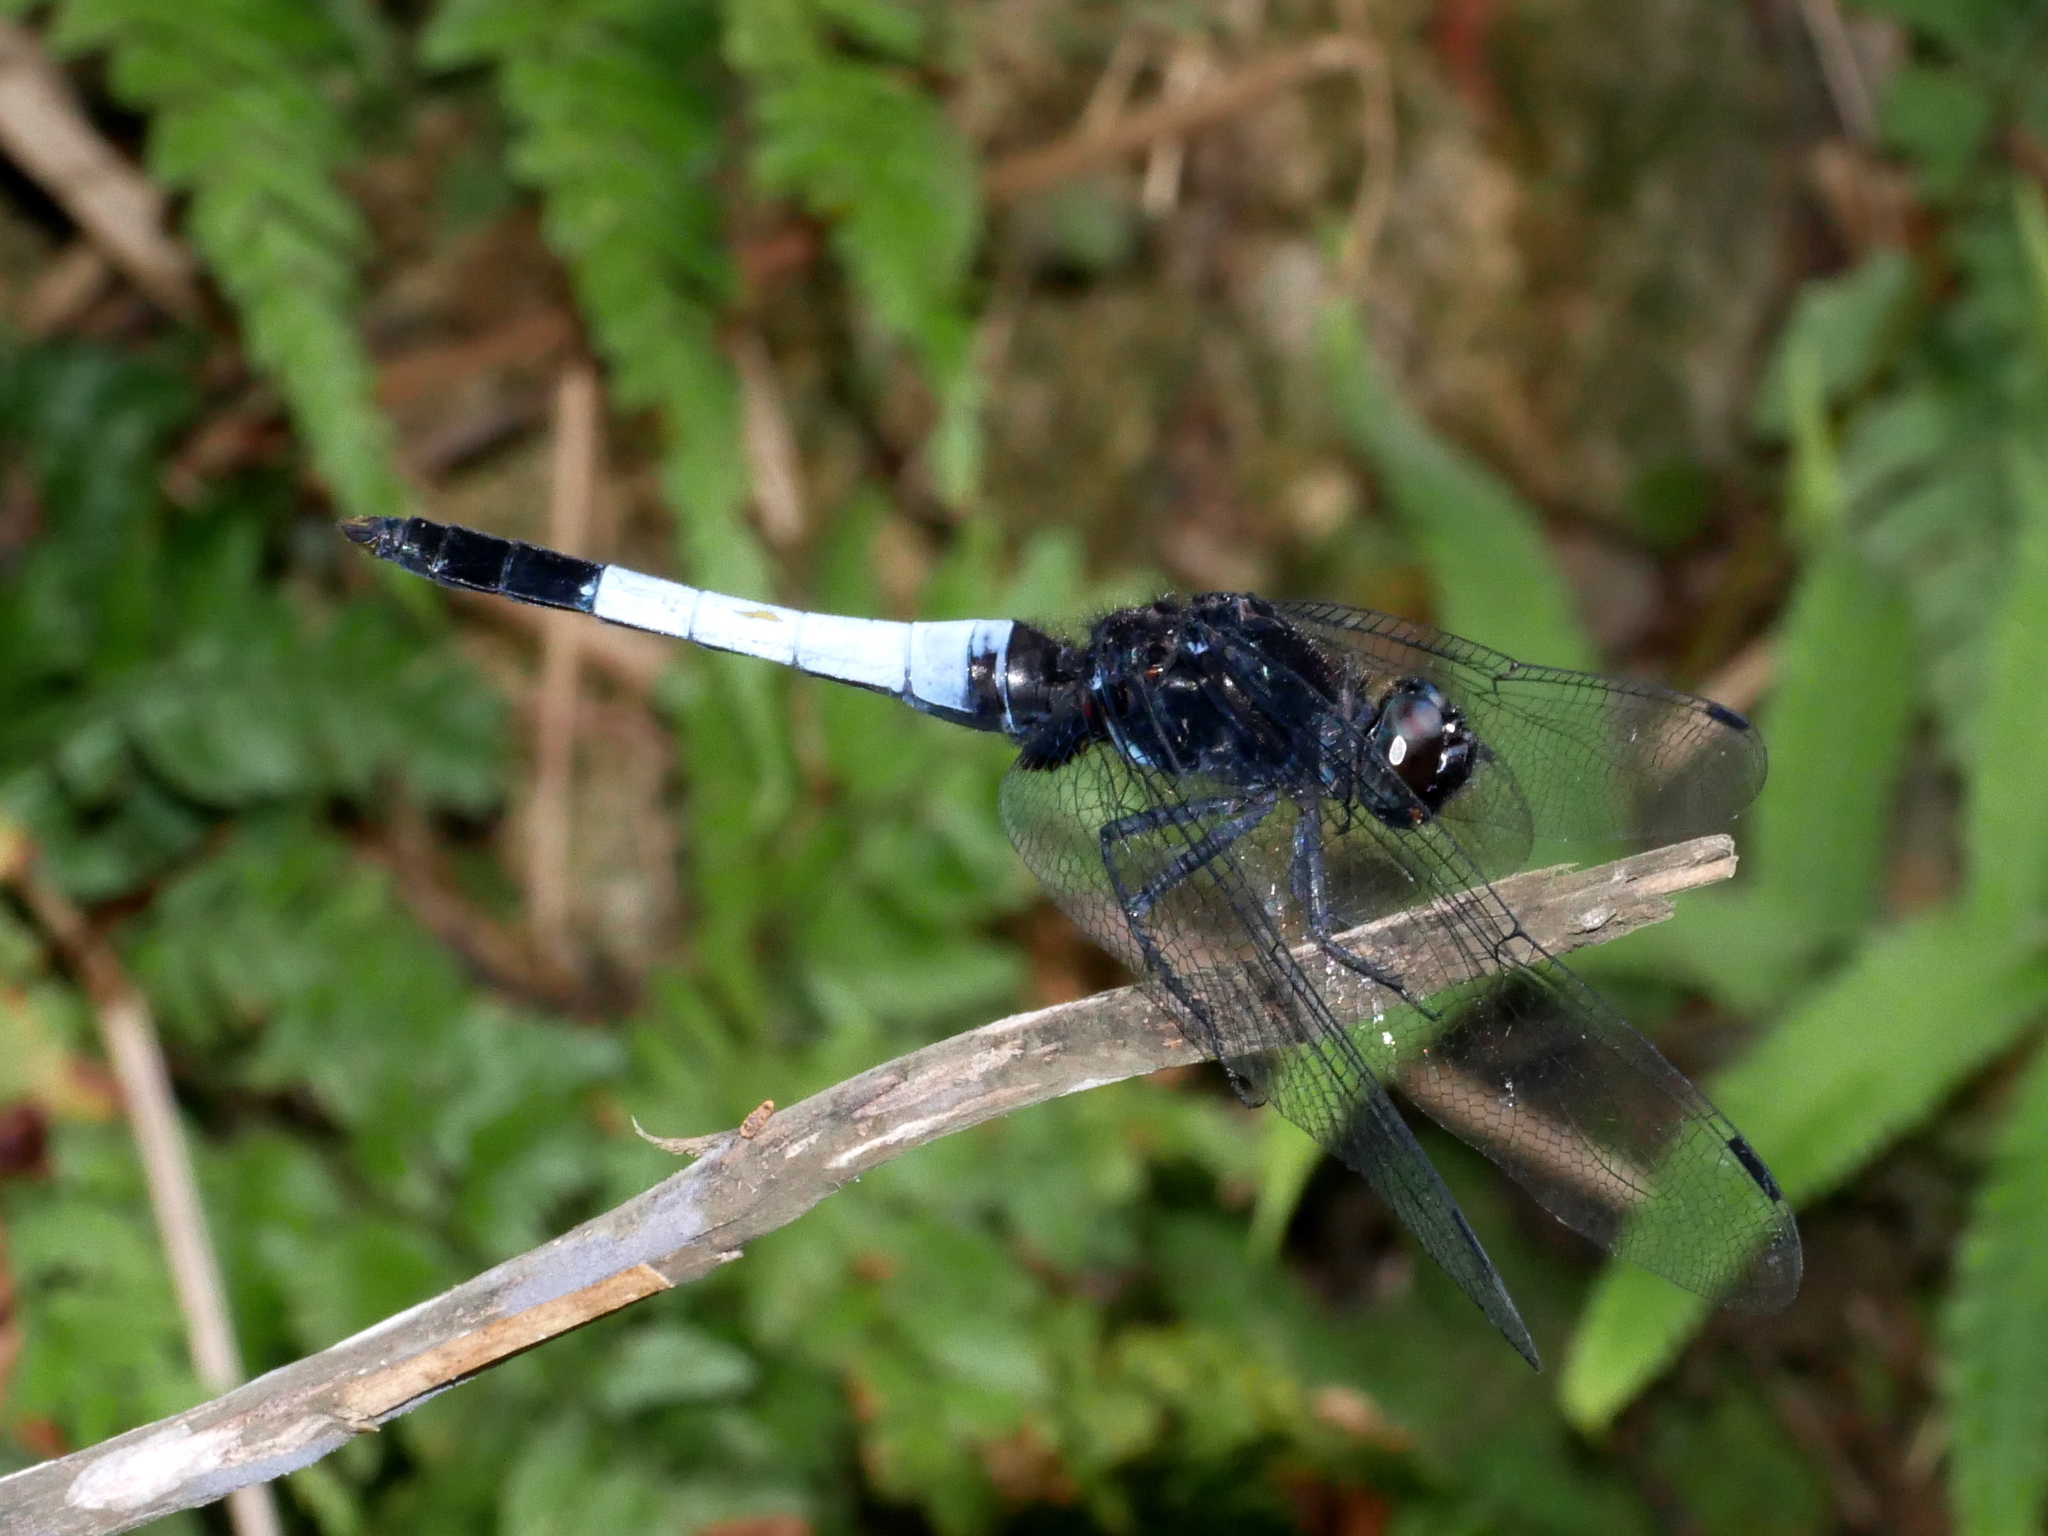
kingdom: Animalia
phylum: Arthropoda
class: Insecta
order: Odonata
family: Libellulidae
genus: Orthetrum
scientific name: Orthetrum triangulare
